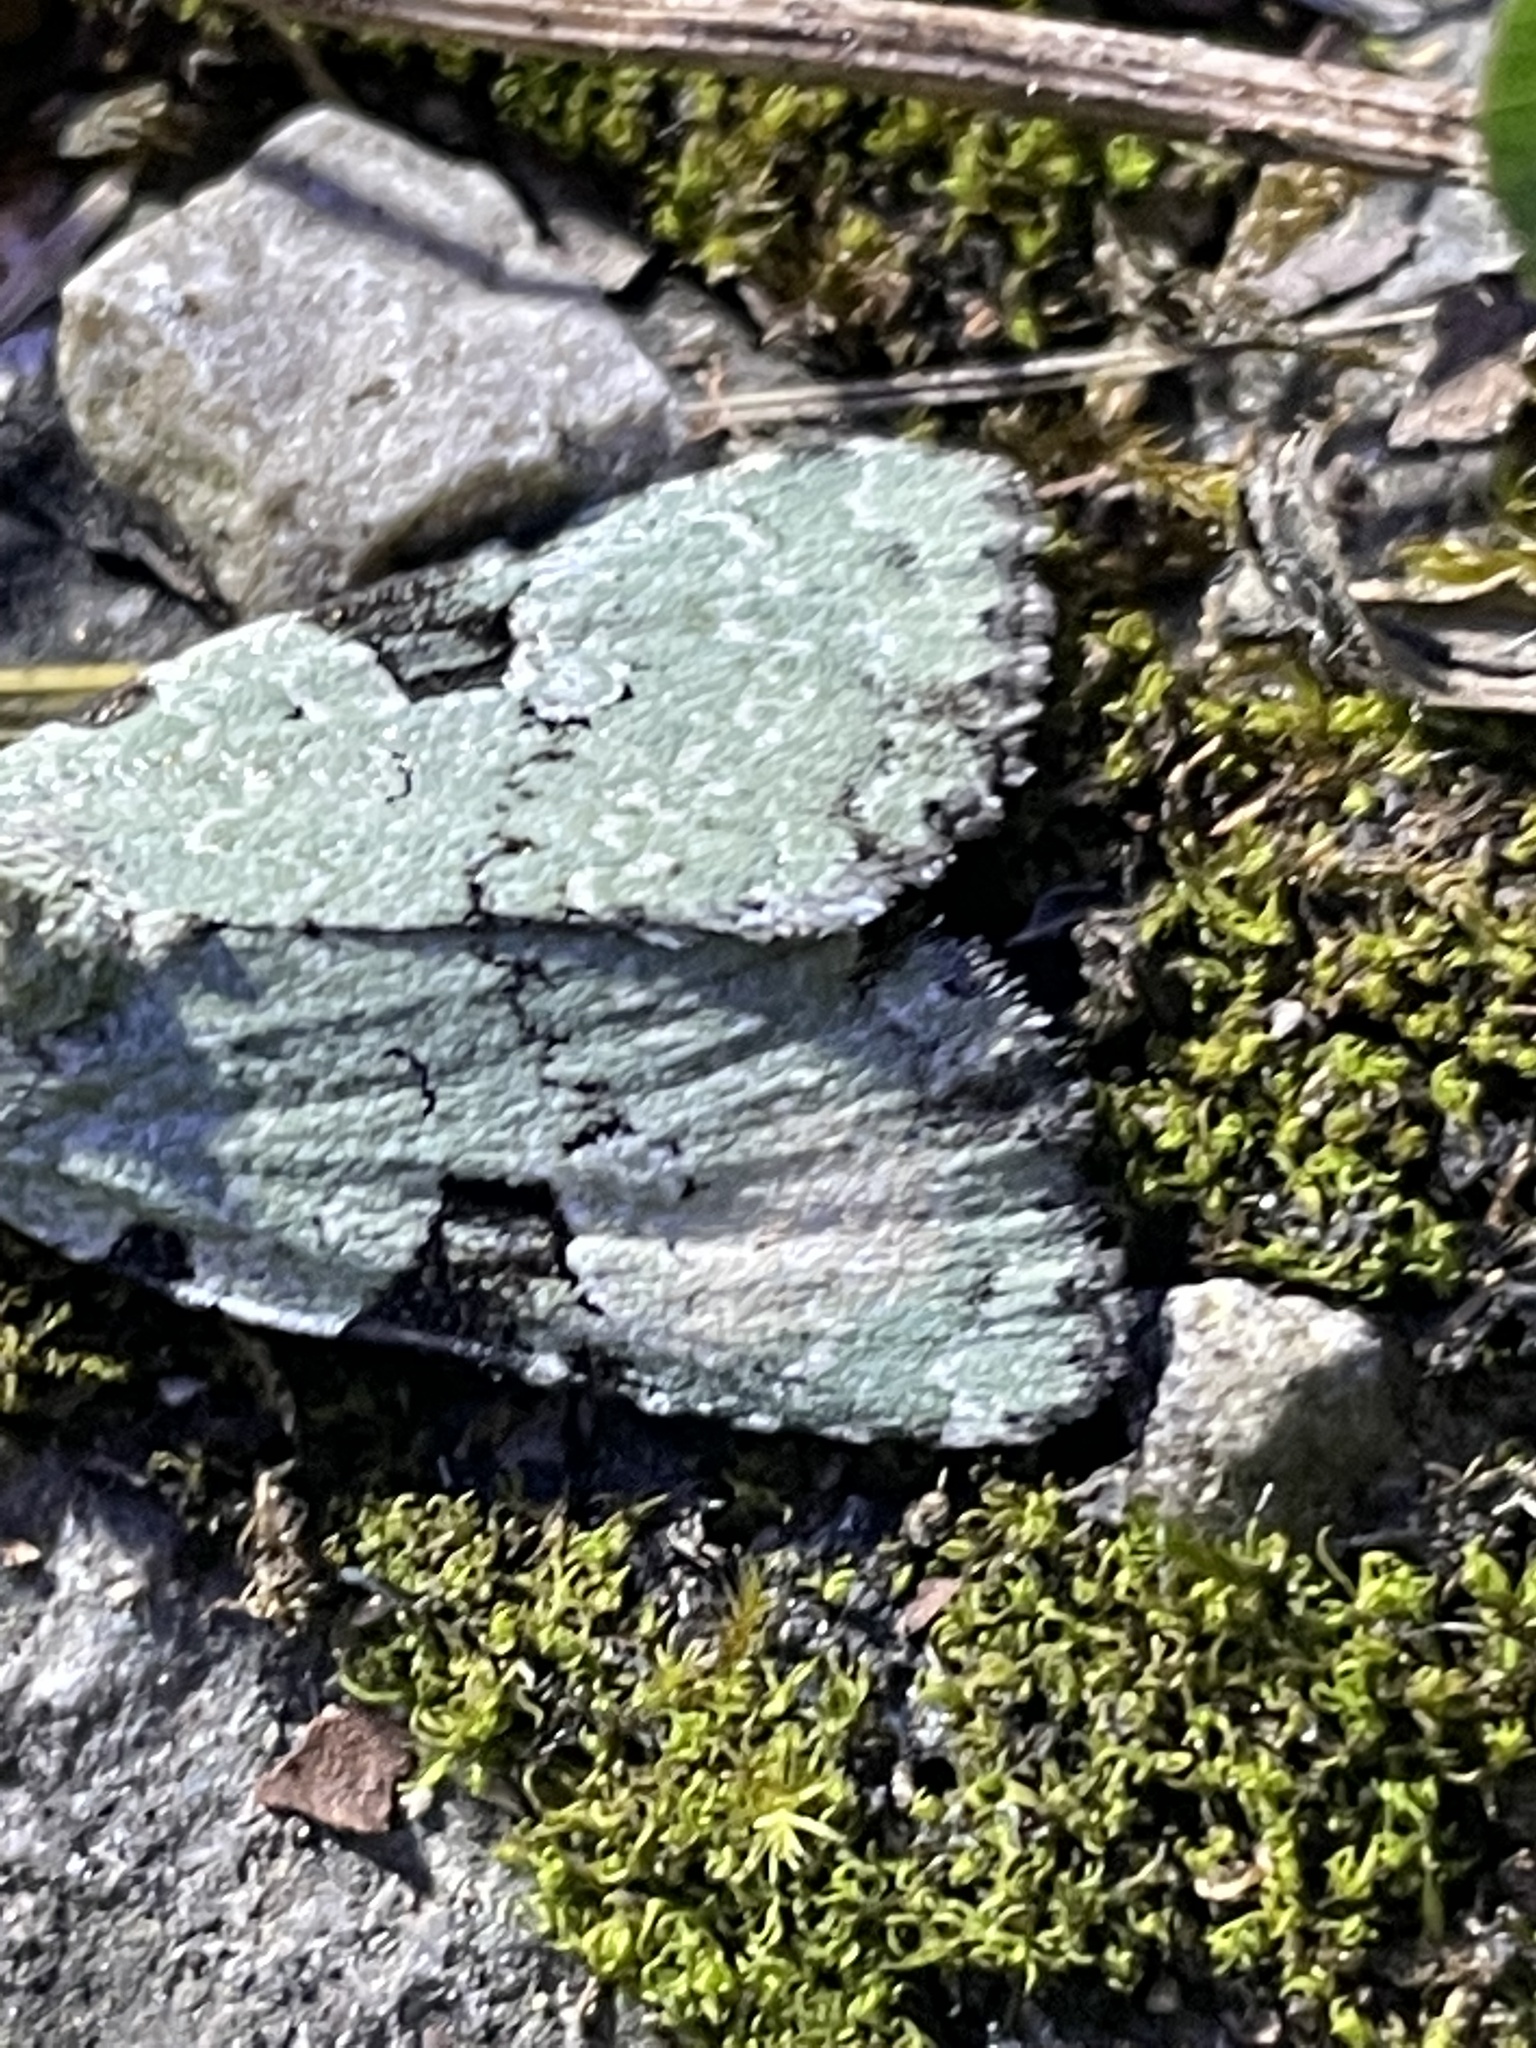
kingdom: Animalia
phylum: Arthropoda
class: Insecta
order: Lepidoptera
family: Noctuidae
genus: Leuconycta
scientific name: Leuconycta diphteroides
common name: Green leuconycta moth
